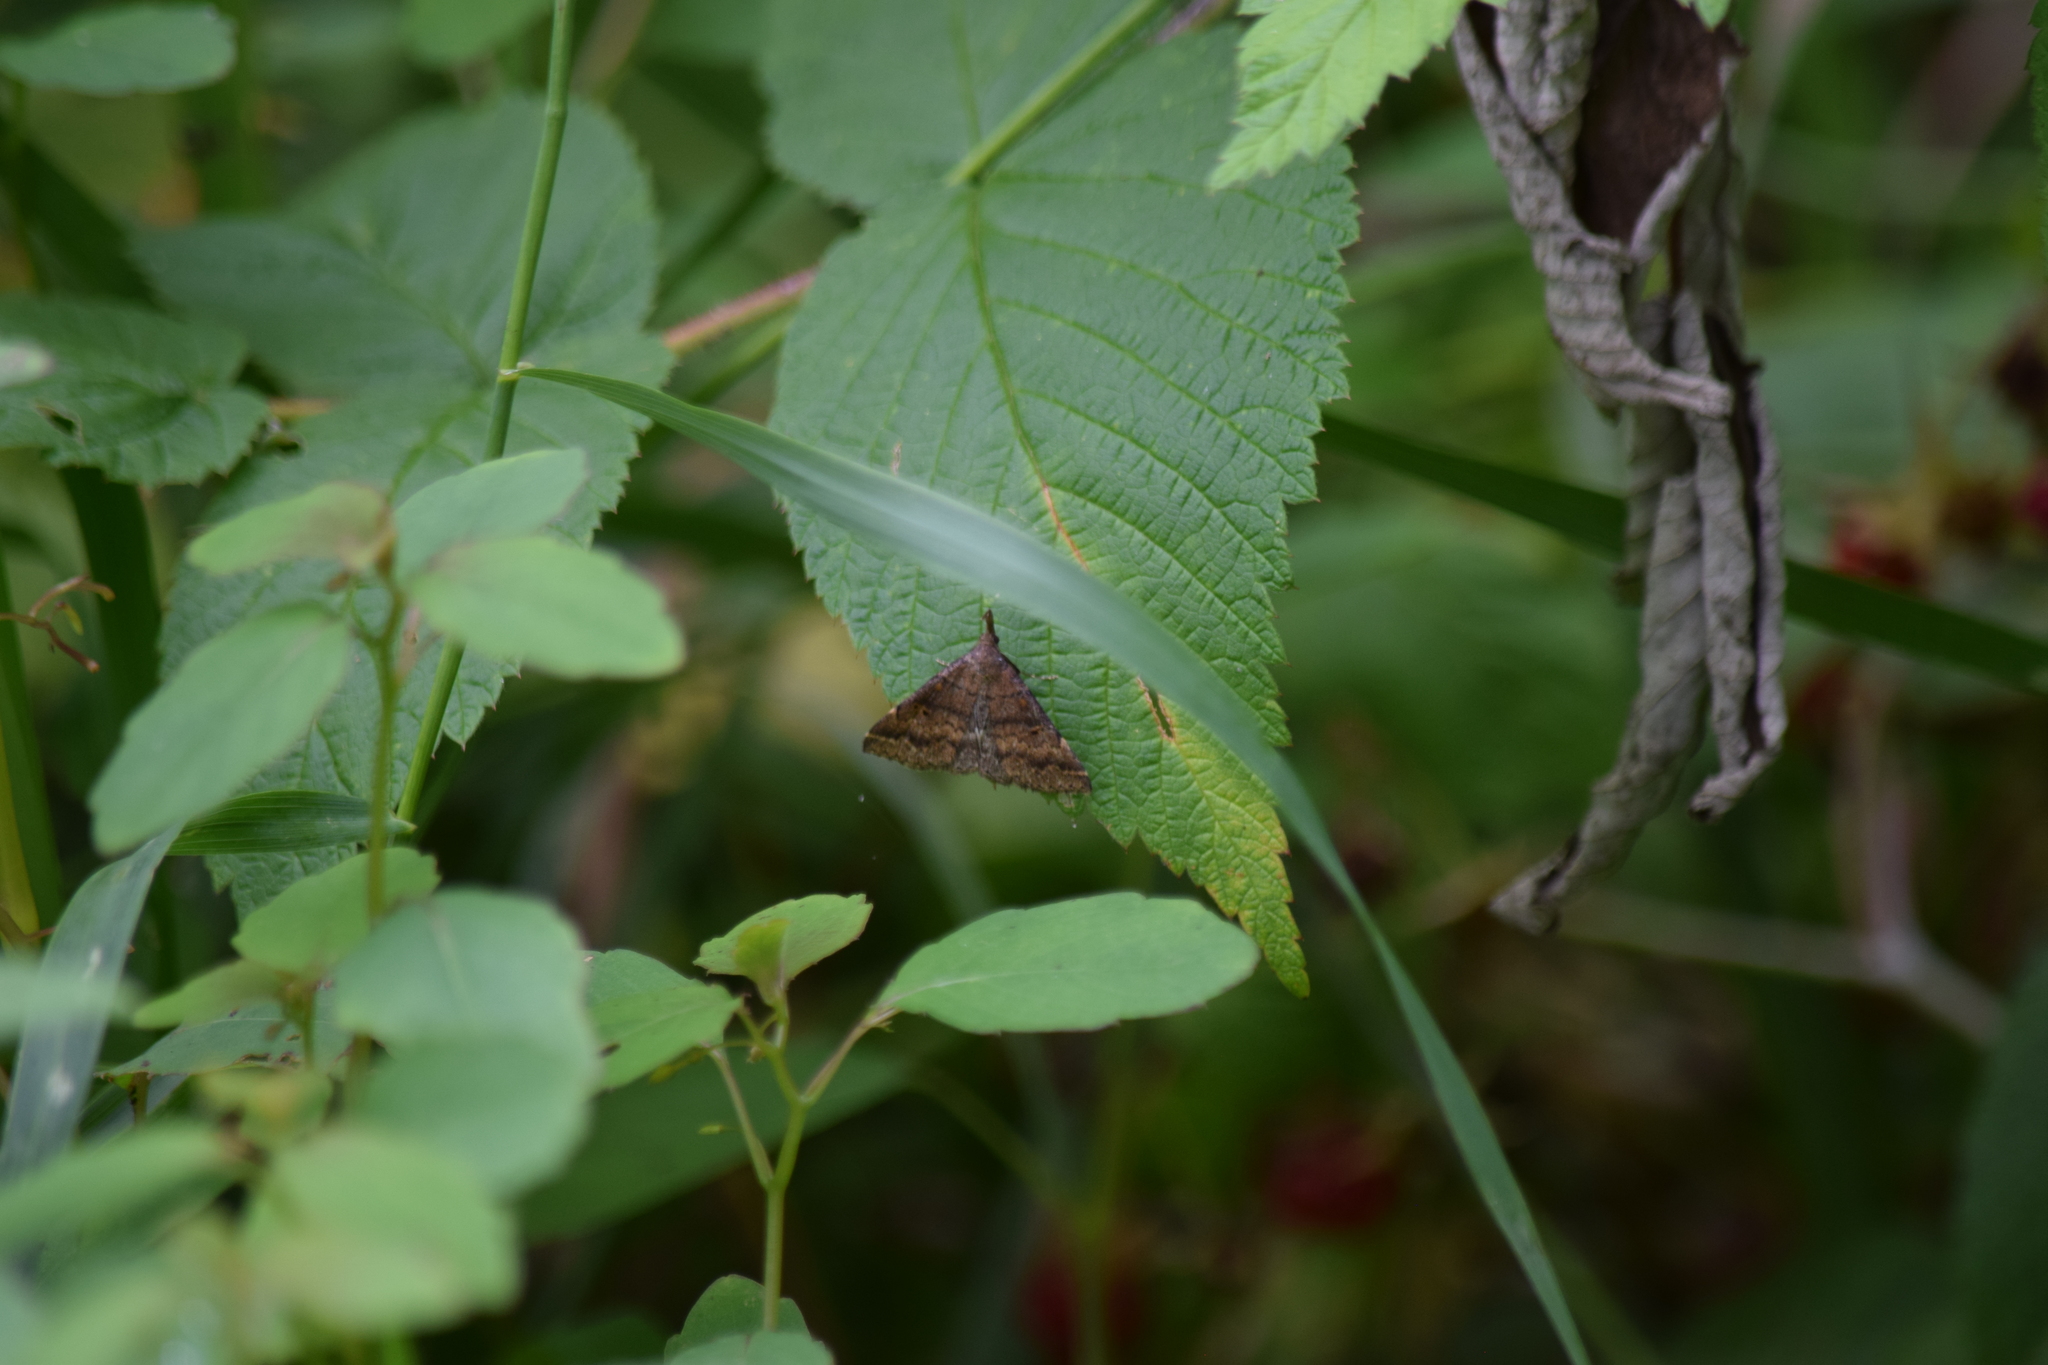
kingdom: Animalia
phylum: Arthropoda
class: Insecta
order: Lepidoptera
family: Erebidae
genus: Renia
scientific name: Renia factiosalis
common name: Sociable renia moth
